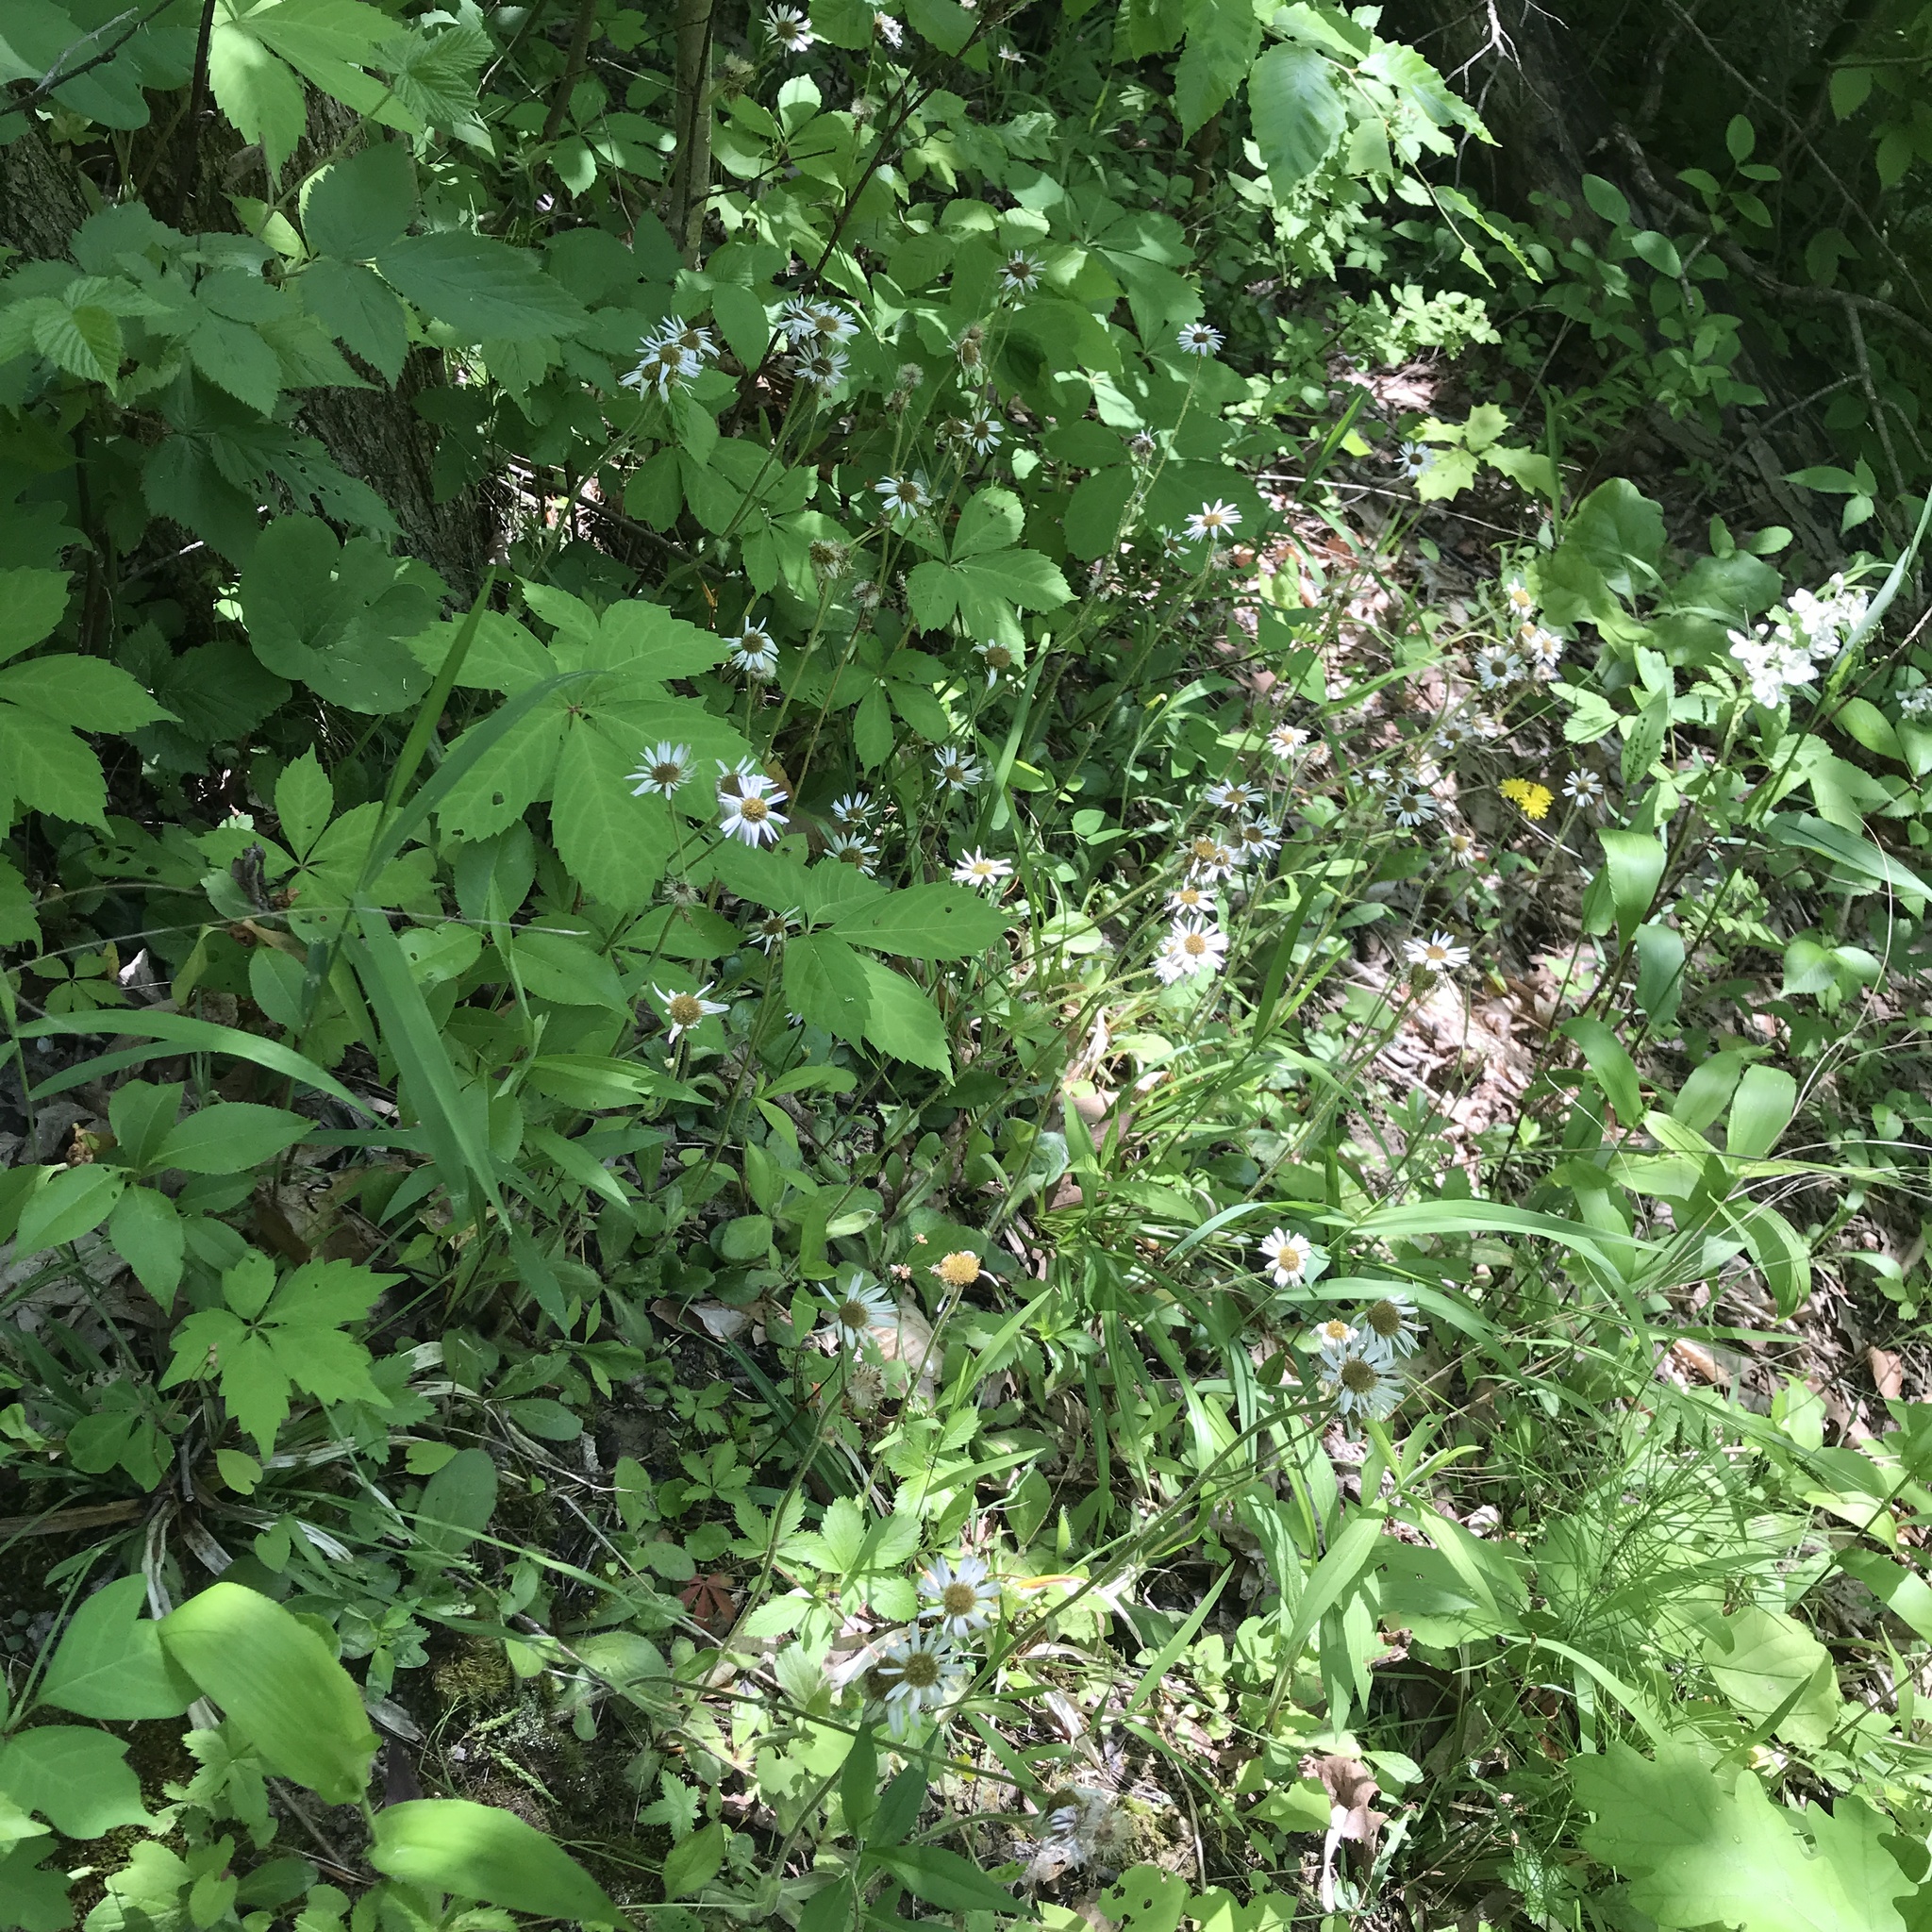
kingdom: Plantae
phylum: Tracheophyta
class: Magnoliopsida
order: Asterales
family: Asteraceae
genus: Erigeron
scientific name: Erigeron pulchellus
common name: Hairy fleabane
